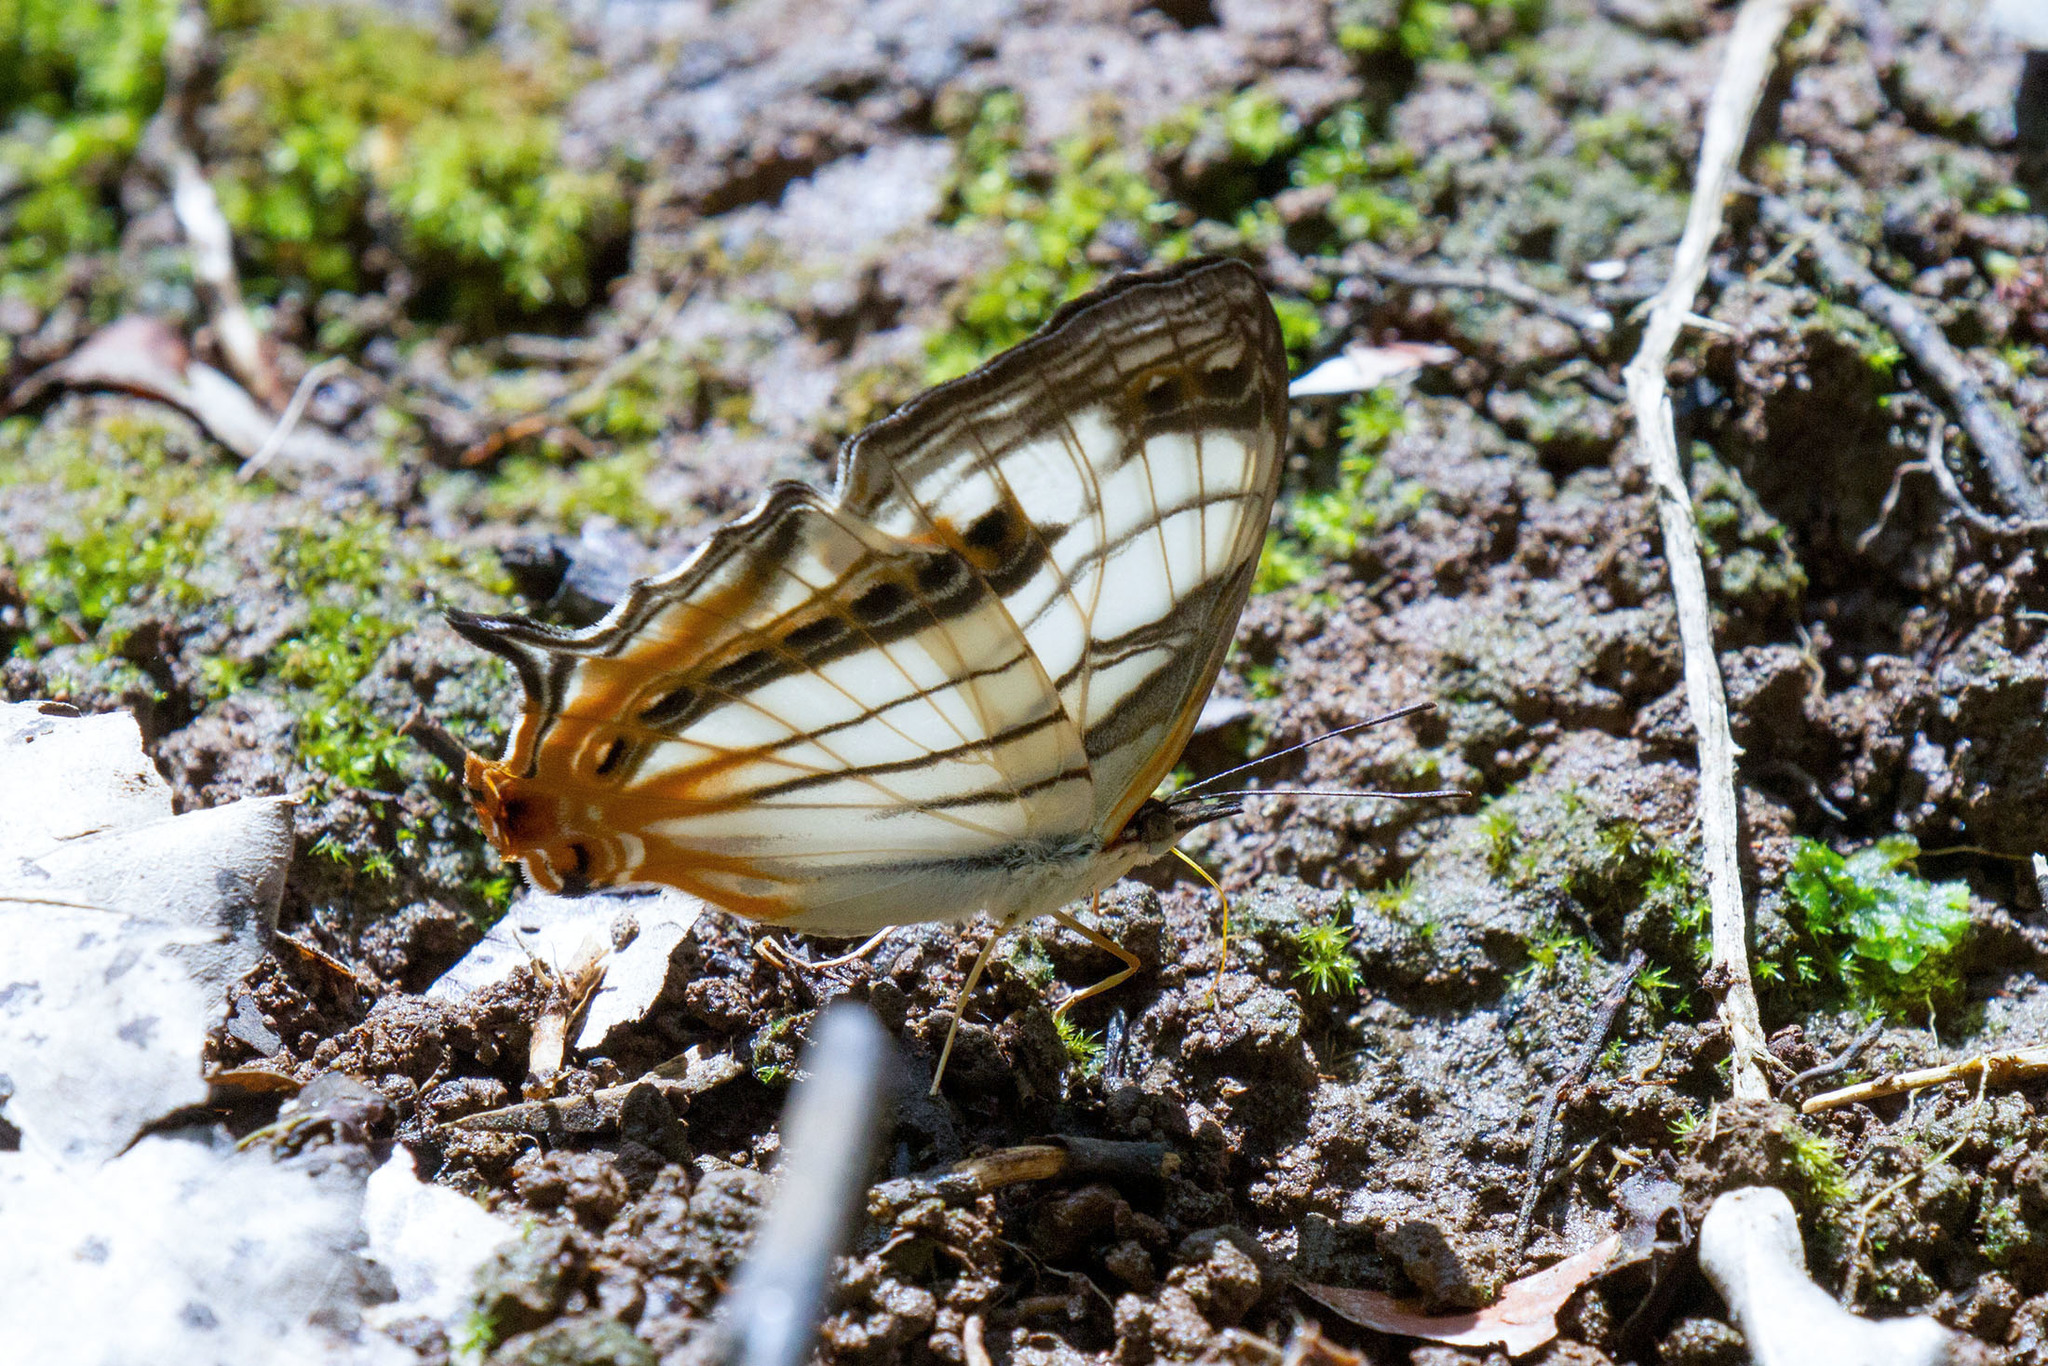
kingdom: Animalia
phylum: Arthropoda
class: Insecta
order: Lepidoptera
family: Nymphalidae
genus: Cyrestis
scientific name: Cyrestis achates
